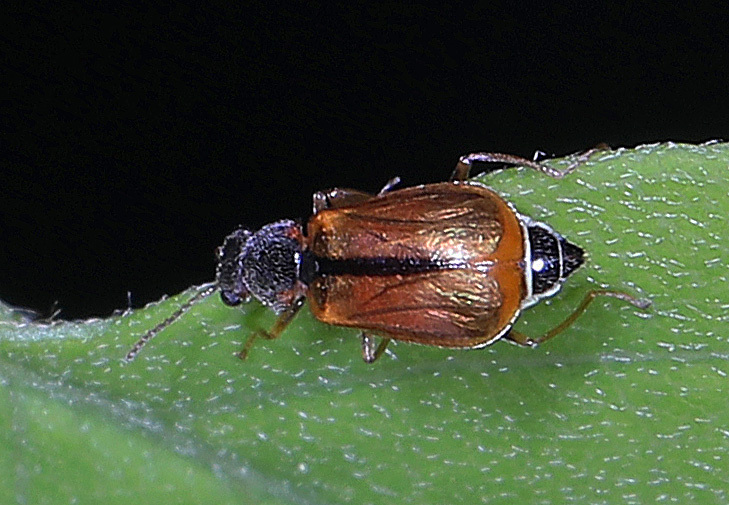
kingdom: Animalia
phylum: Arthropoda
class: Insecta
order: Coleoptera
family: Malachiidae
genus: Attalus
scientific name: Attalus
